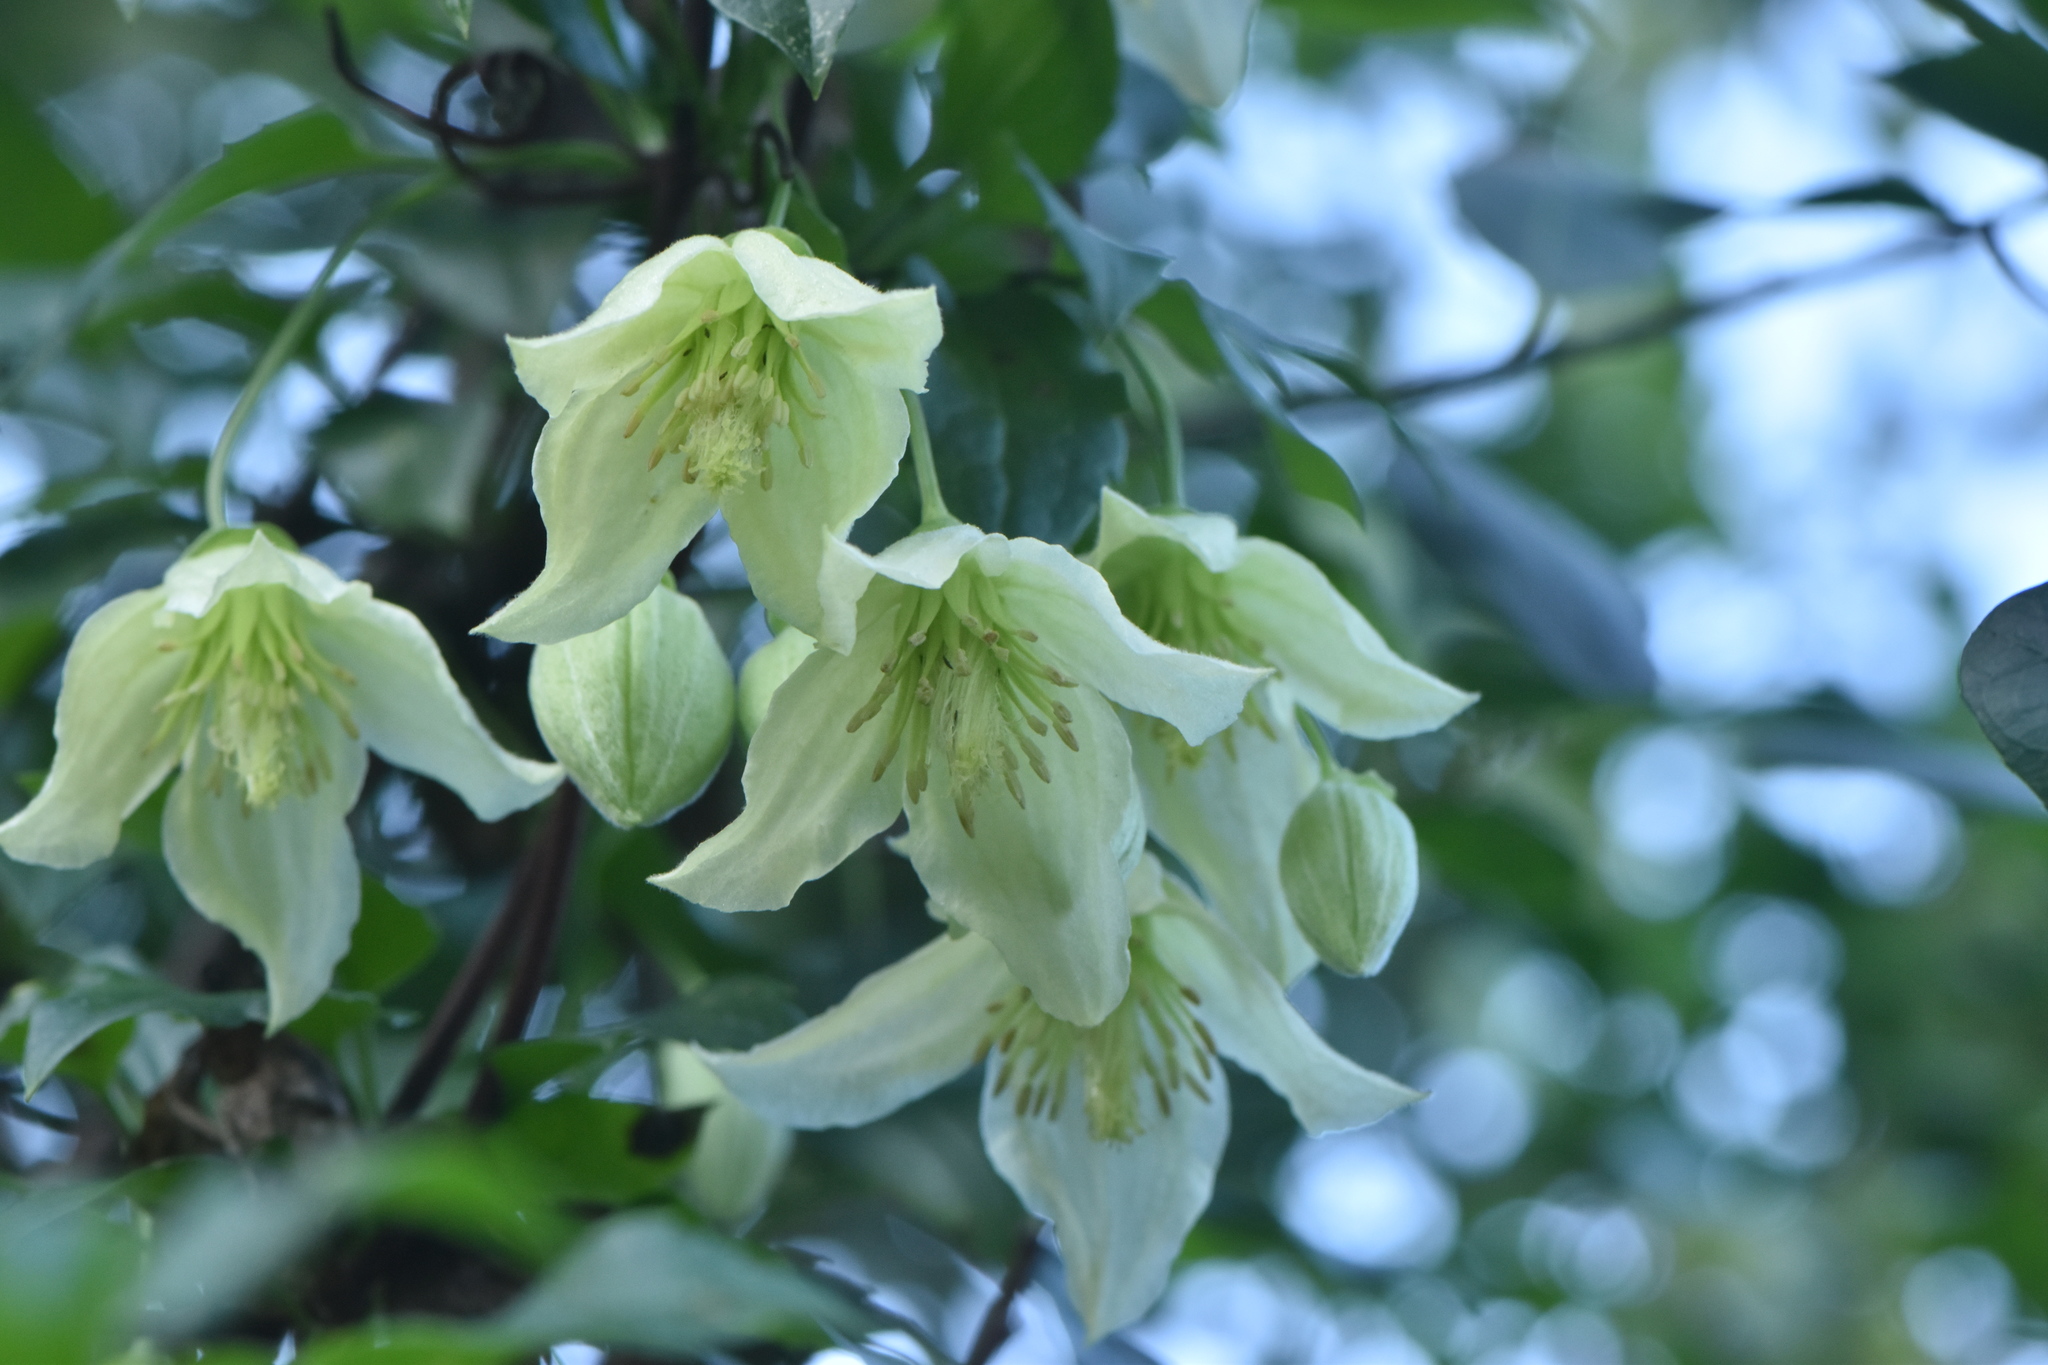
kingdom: Plantae
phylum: Tracheophyta
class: Magnoliopsida
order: Ranunculales
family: Ranunculaceae
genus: Clematis
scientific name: Clematis cirrhosa
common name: Early virgin's-bower
